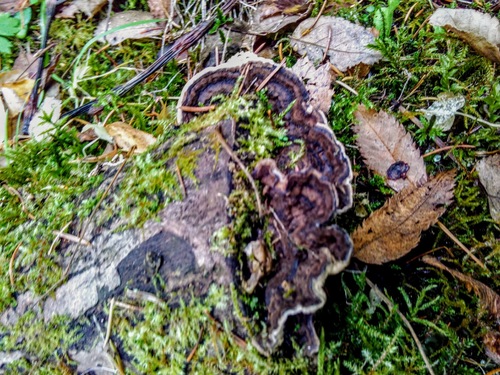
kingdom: Fungi
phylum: Basidiomycota
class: Agaricomycetes
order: Gloeophyllales
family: Gloeophyllaceae
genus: Gloeophyllum
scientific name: Gloeophyllum
